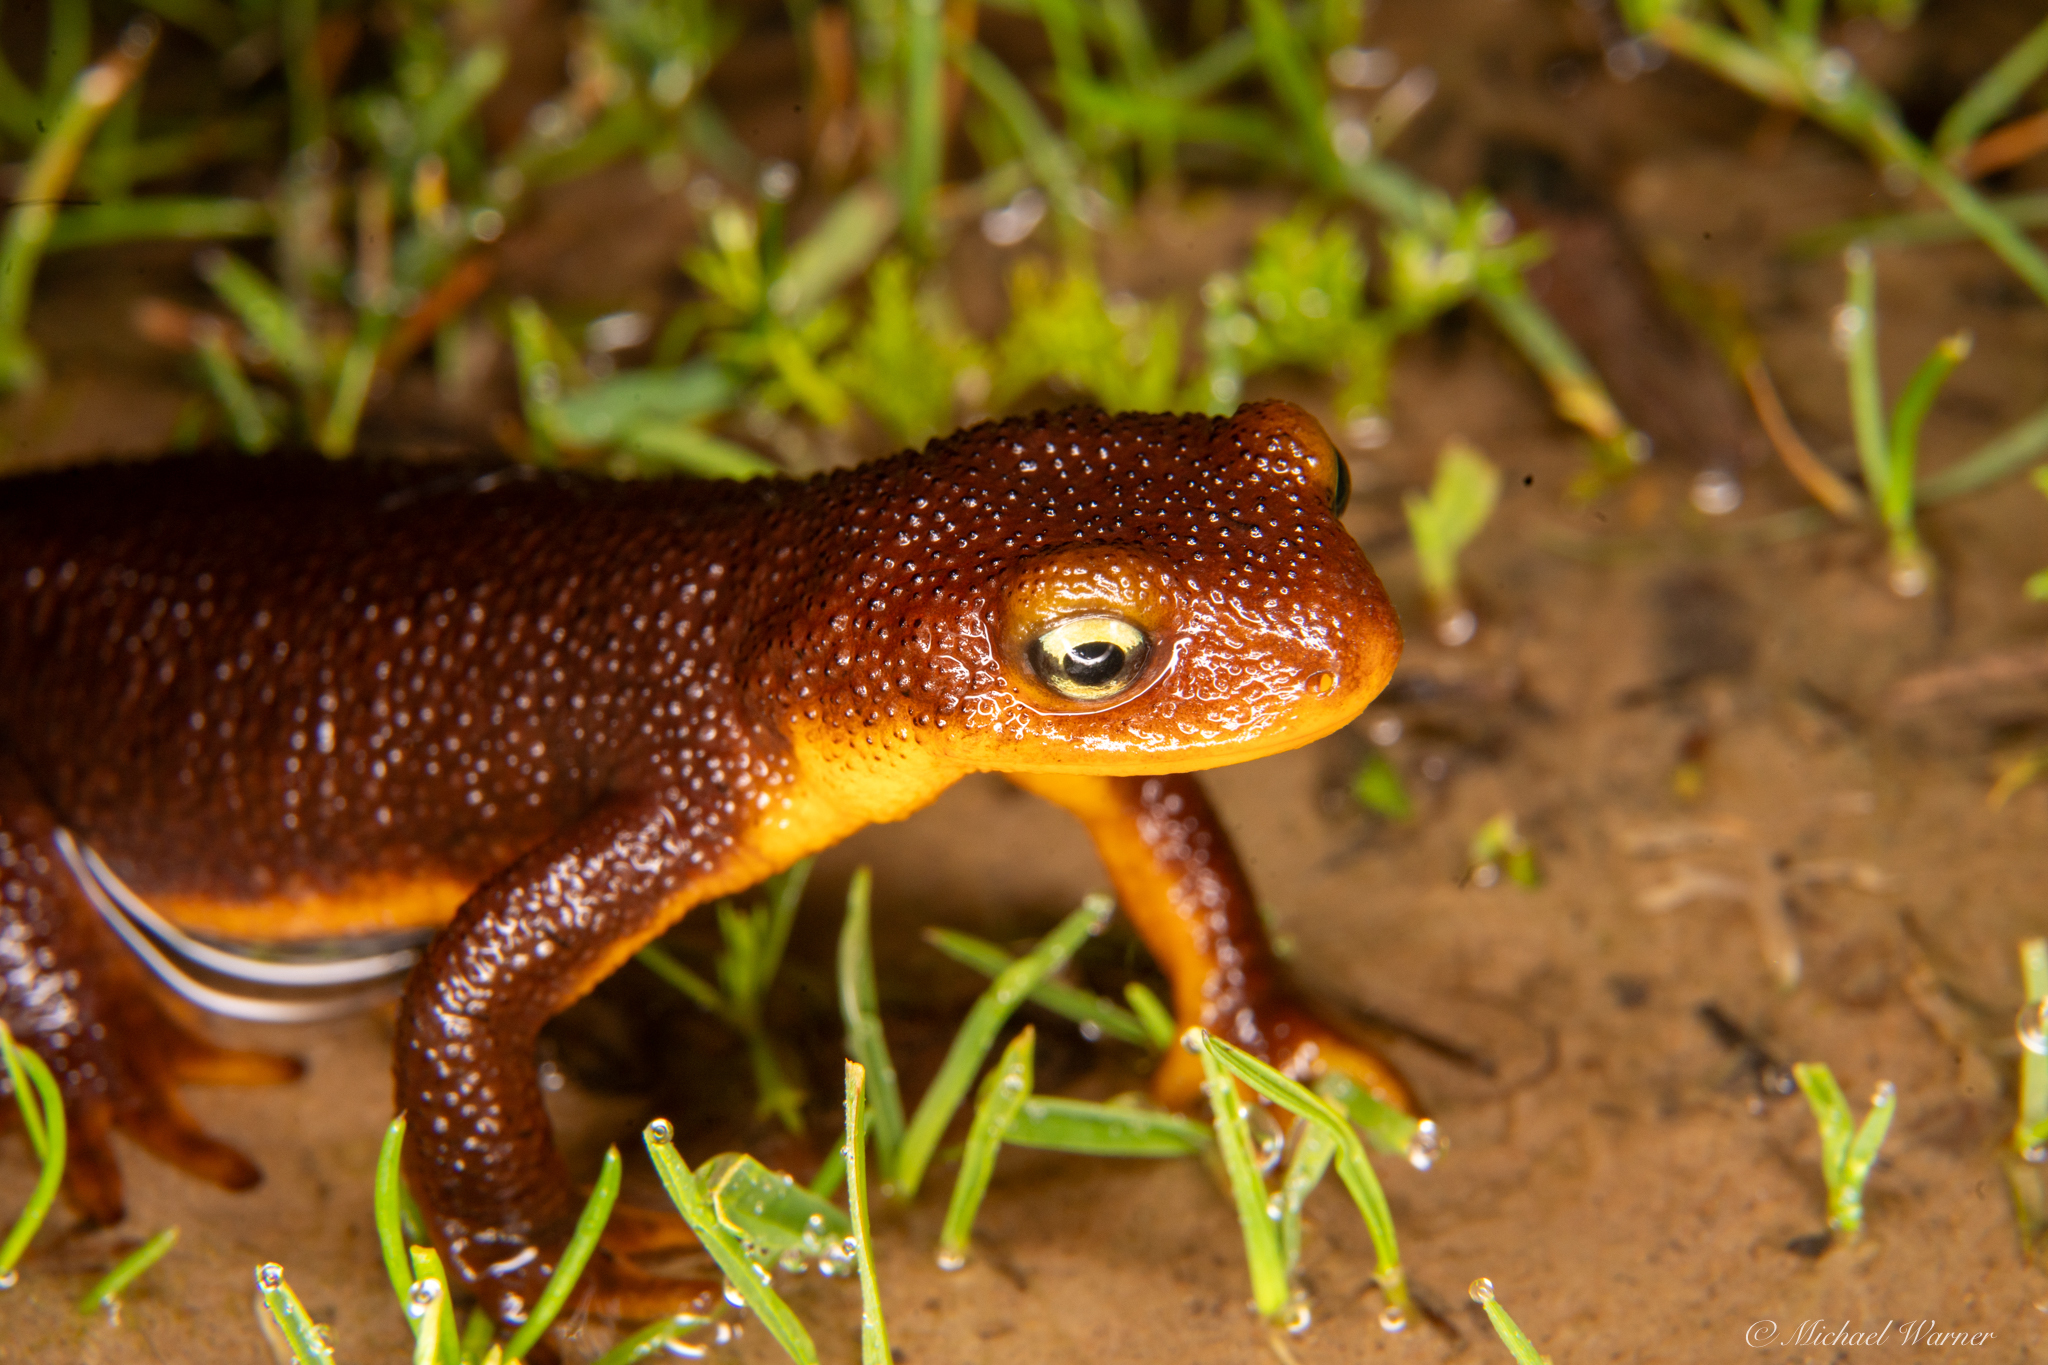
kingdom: Animalia
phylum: Chordata
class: Amphibia
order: Caudata
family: Salamandridae
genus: Taricha
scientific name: Taricha torosa
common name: California newt
